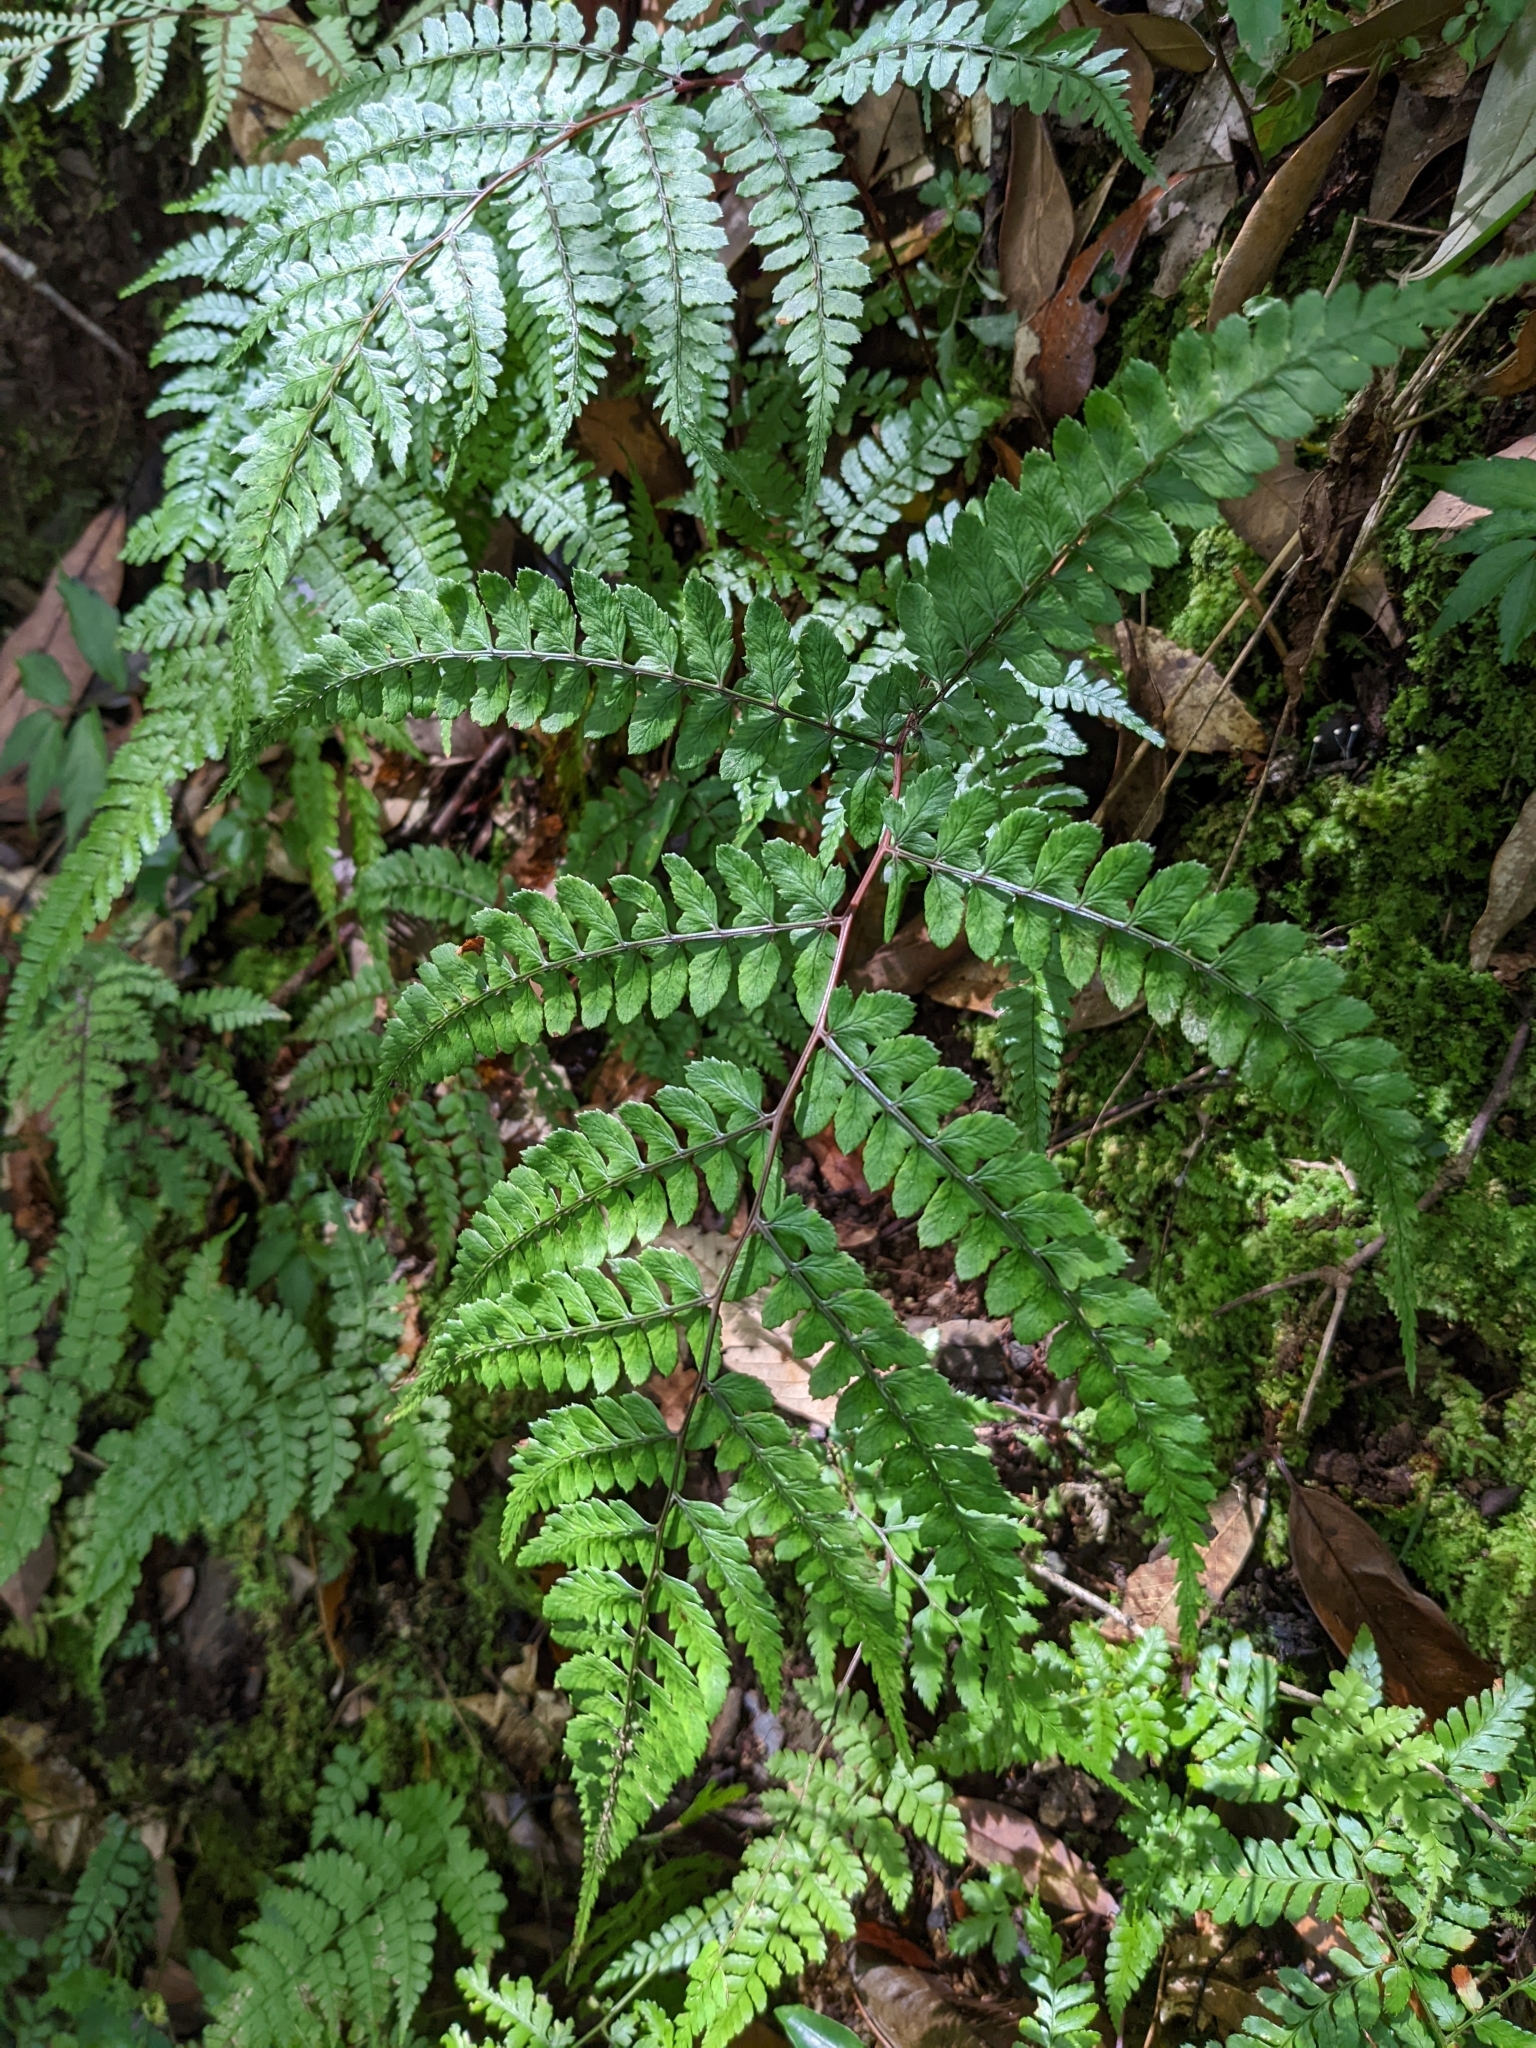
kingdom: Plantae
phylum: Tracheophyta
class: Polypodiopsida
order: Polypodiales
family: Athyriaceae
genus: Athyrium
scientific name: Athyrium clivicola
